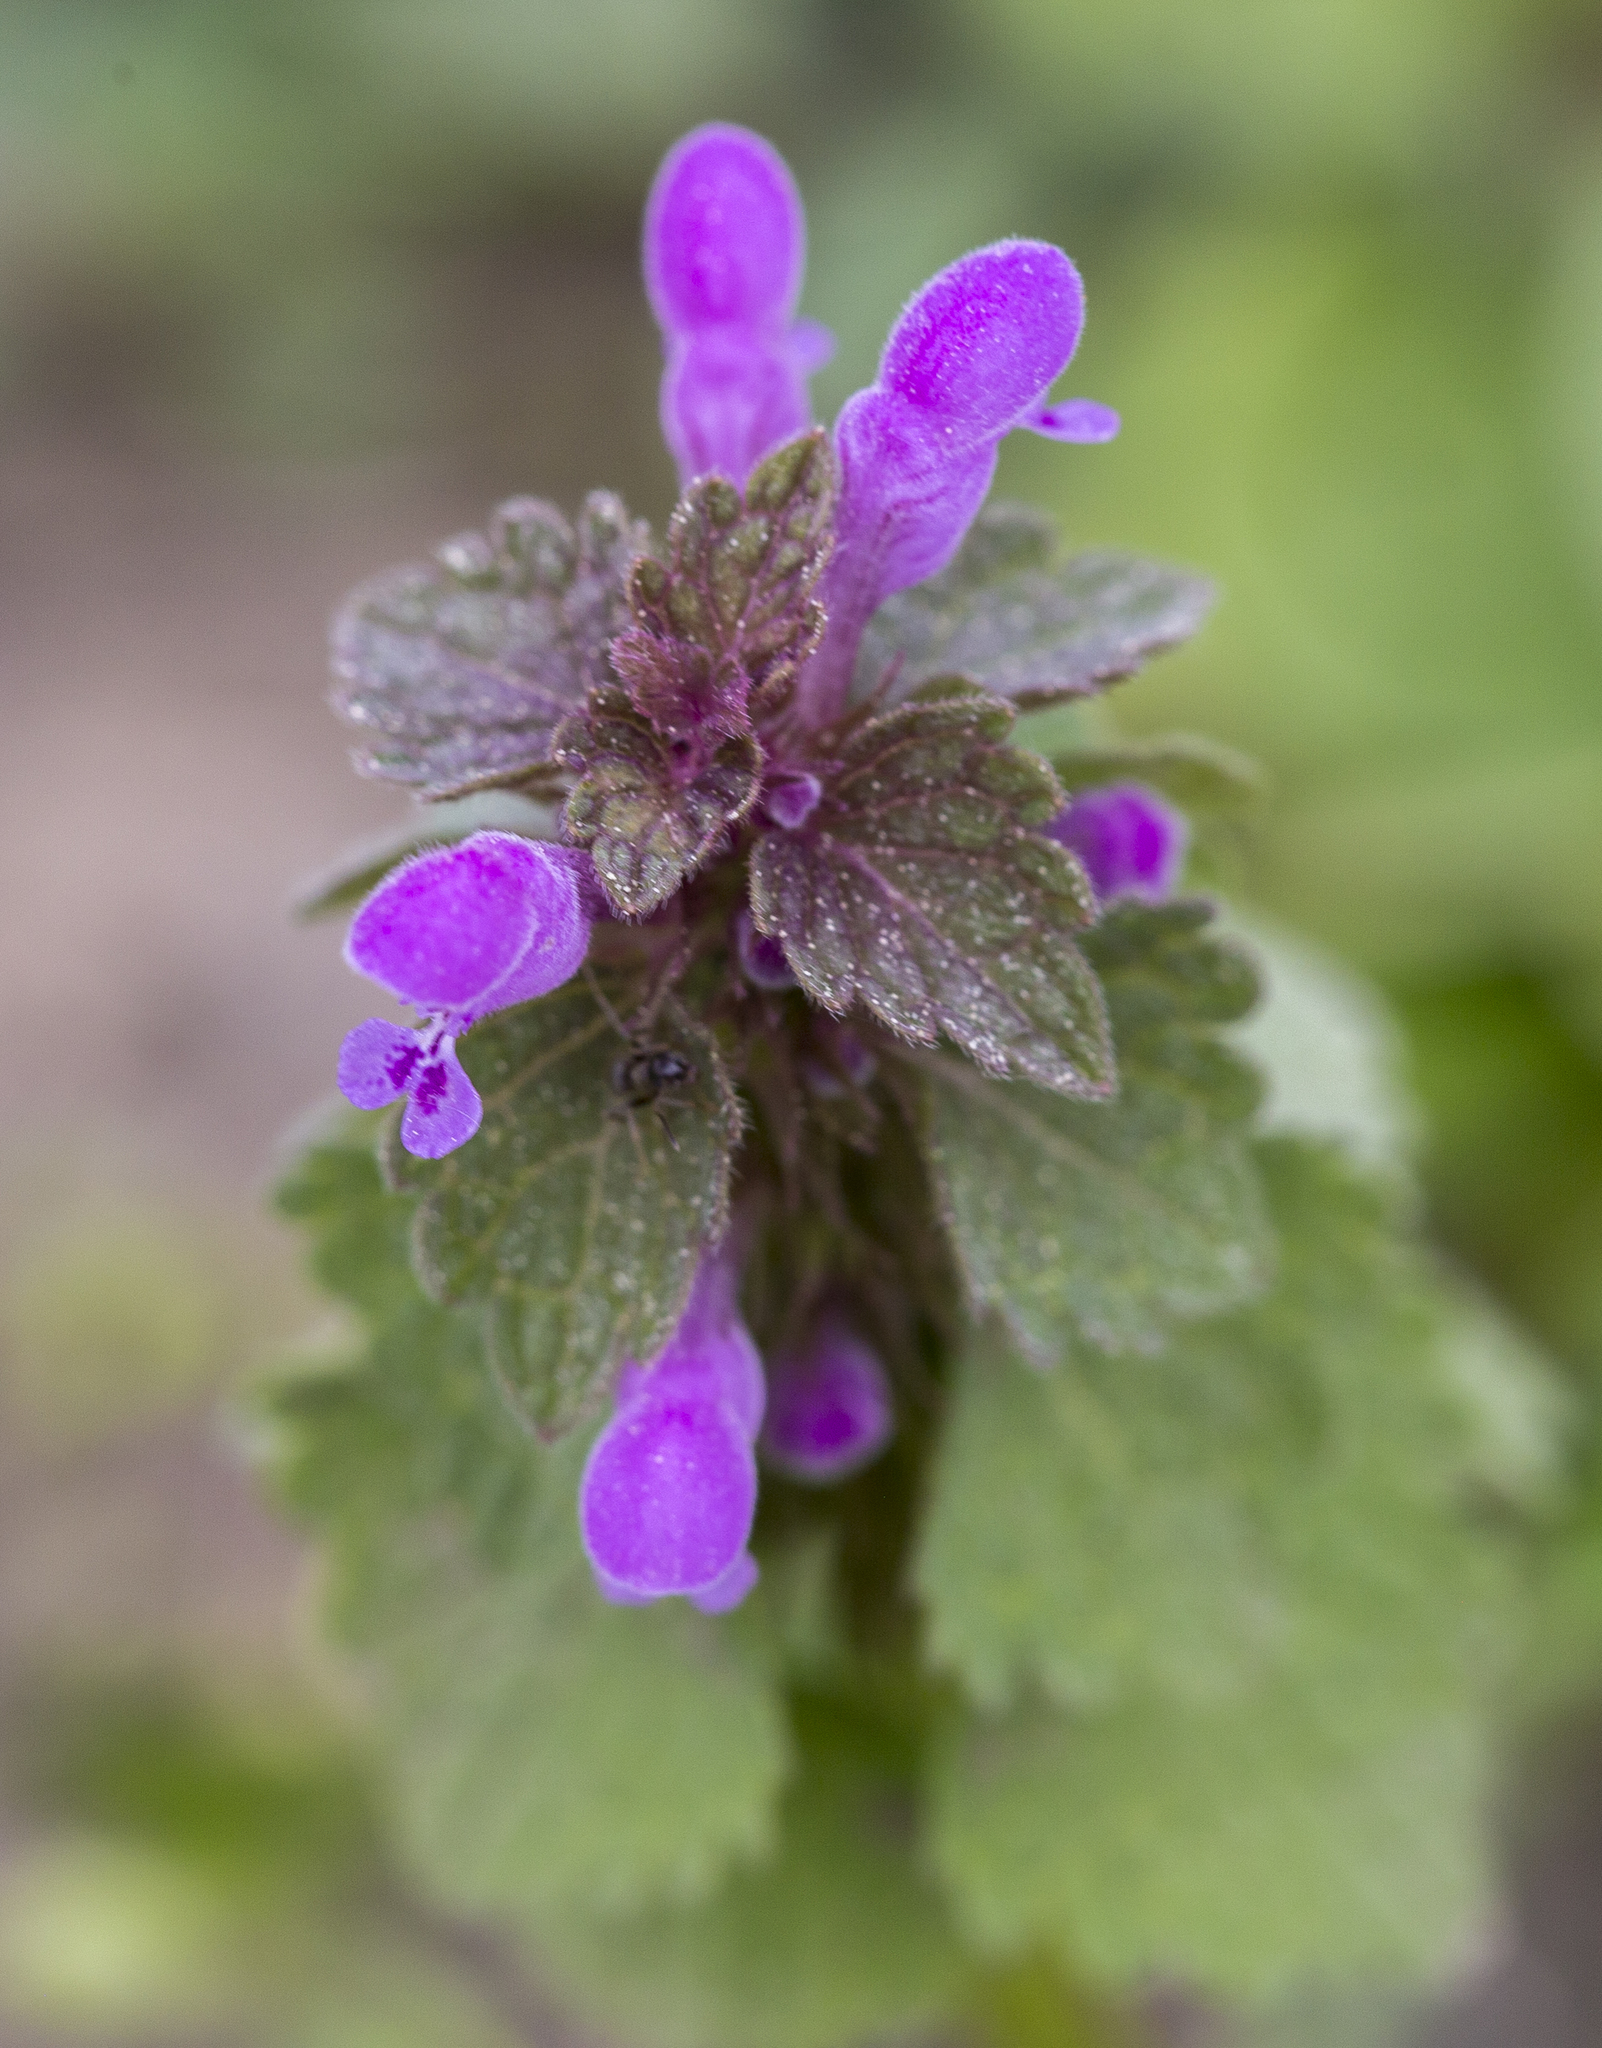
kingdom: Plantae
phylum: Tracheophyta
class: Magnoliopsida
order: Lamiales
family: Lamiaceae
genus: Lamium
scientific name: Lamium purpureum
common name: Red dead-nettle
